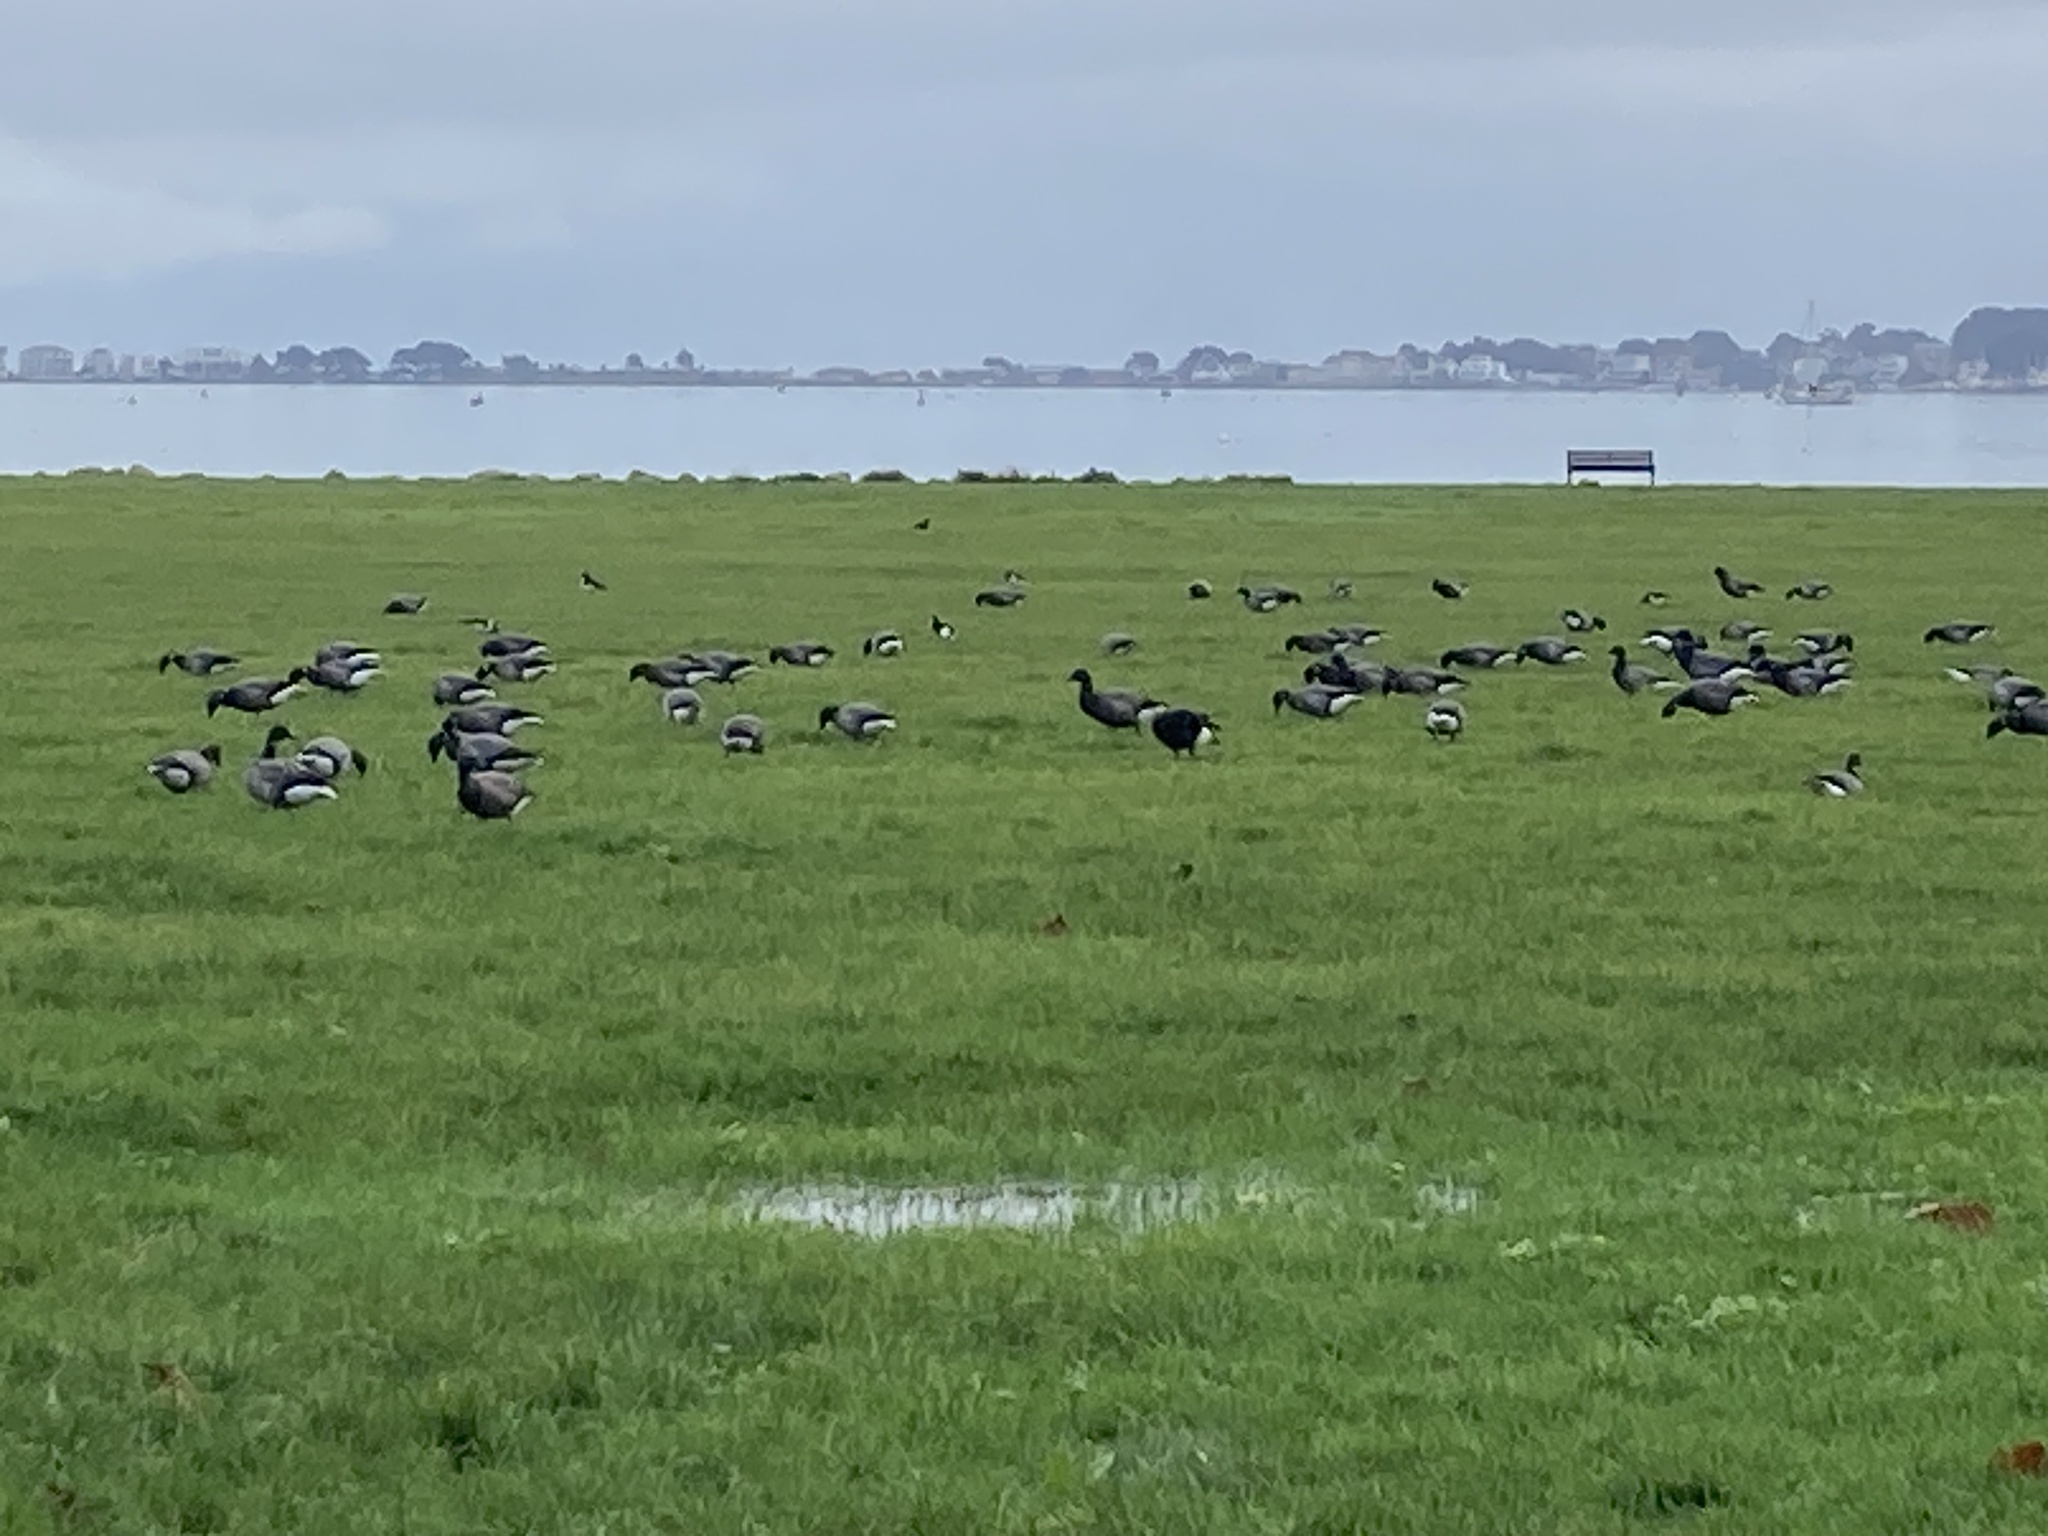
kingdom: Animalia
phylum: Chordata
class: Aves
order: Anseriformes
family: Anatidae
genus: Branta
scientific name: Branta bernicla
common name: Brant goose
